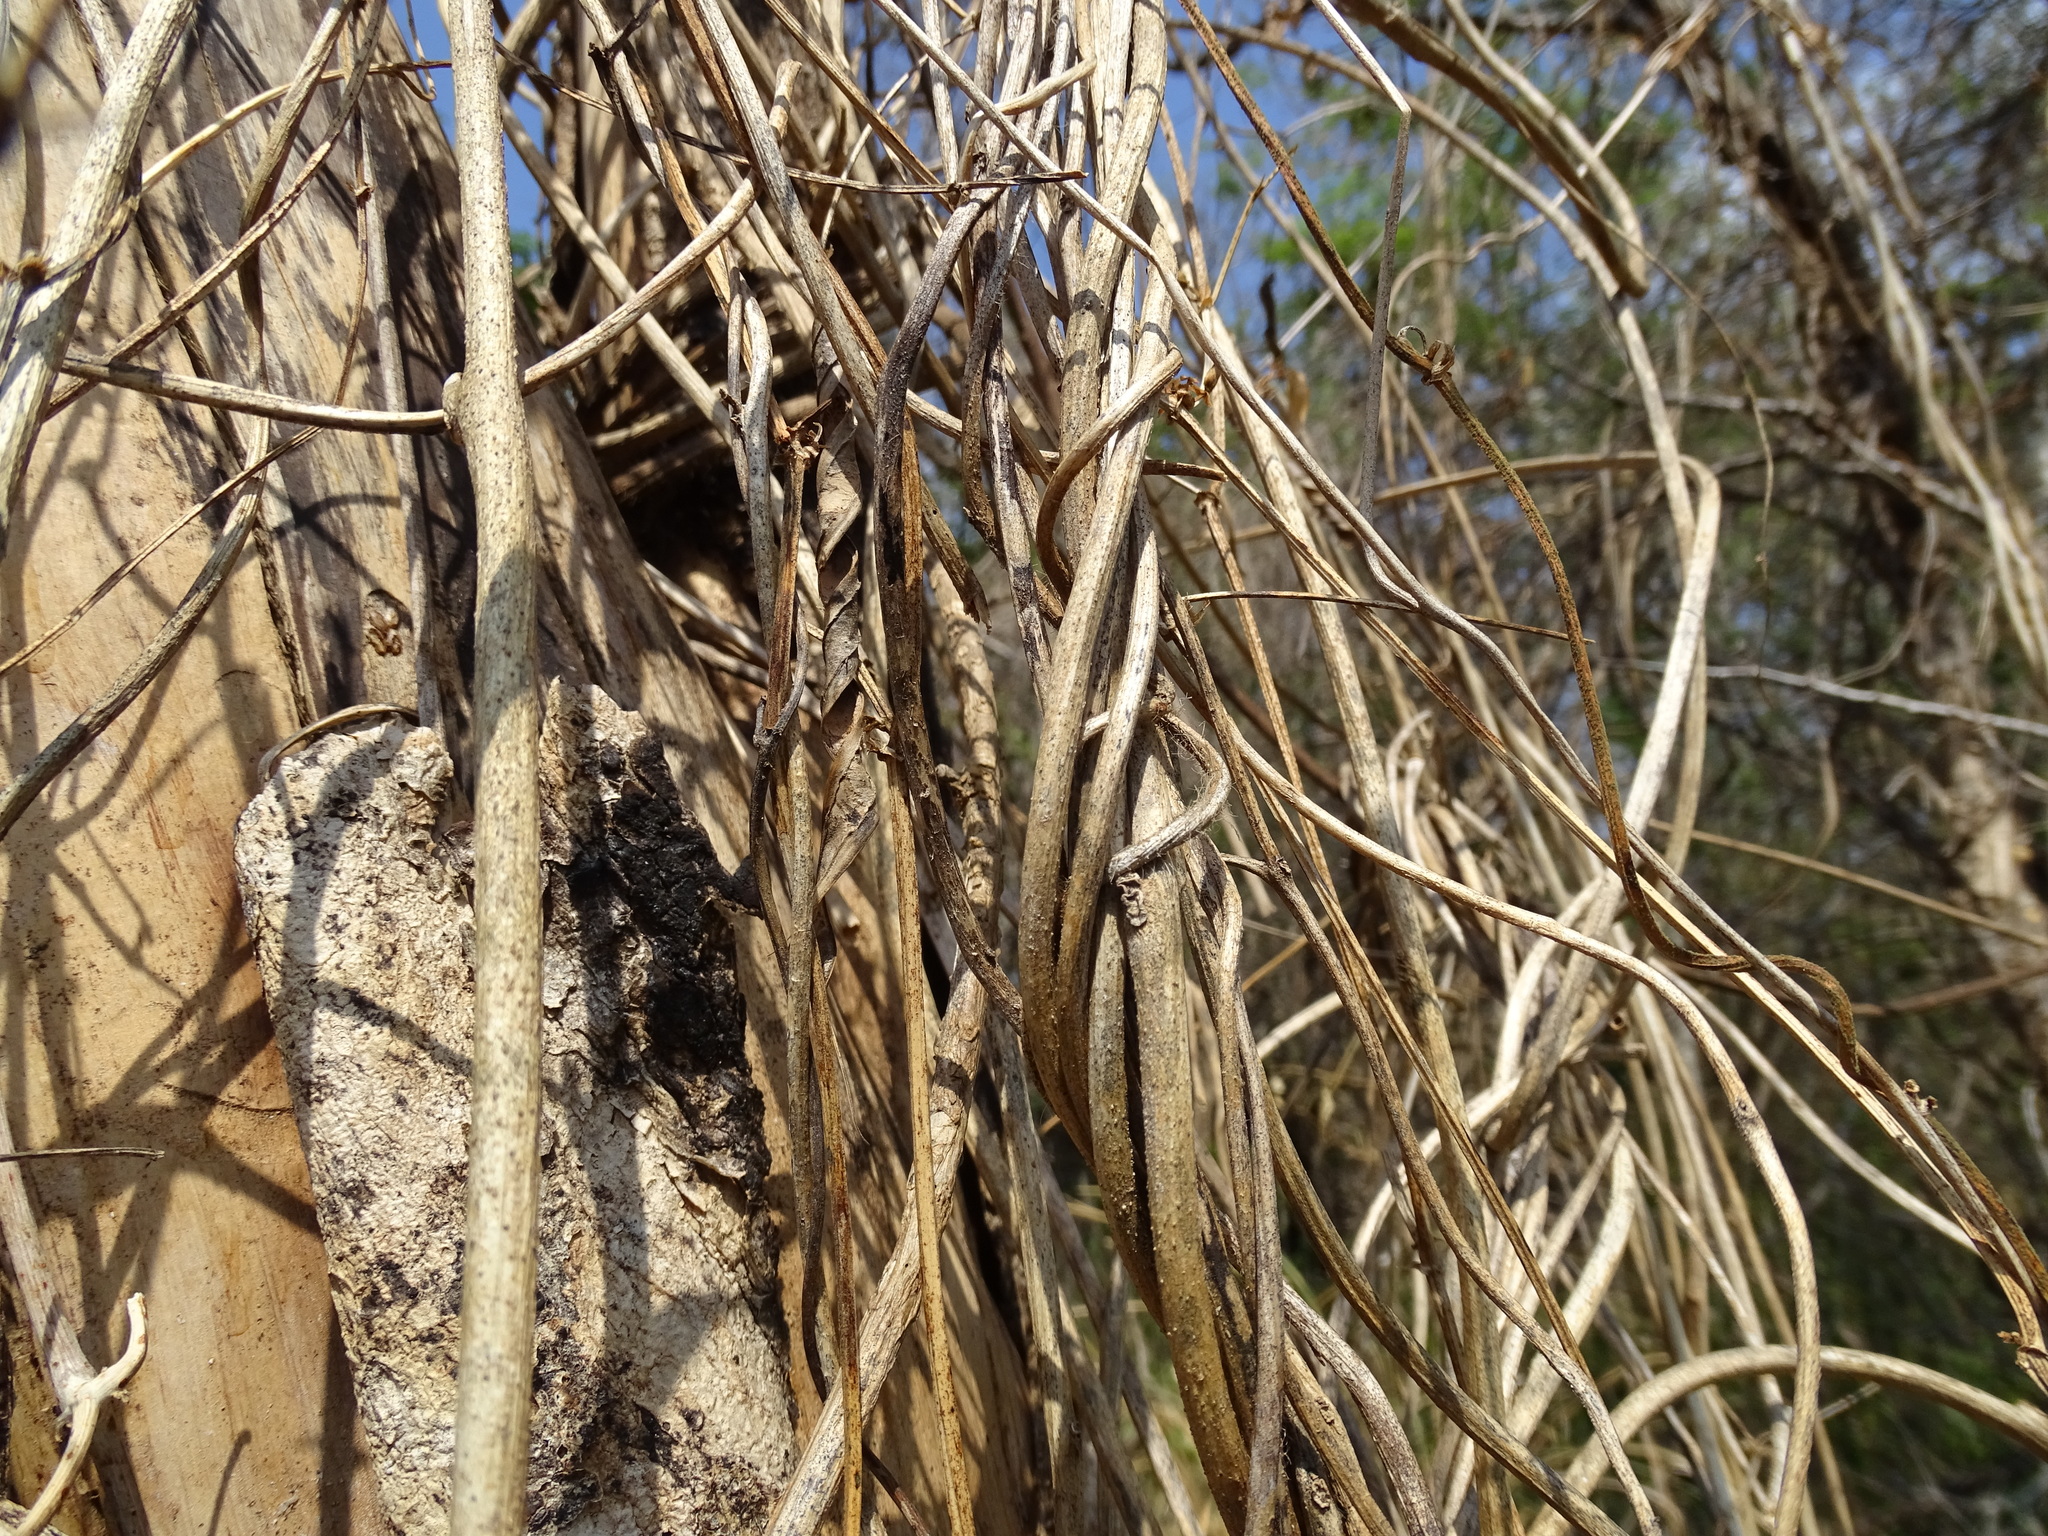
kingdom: Plantae
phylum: Tracheophyta
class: Magnoliopsida
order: Solanales
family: Convolvulaceae
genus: Ipomoea
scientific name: Ipomoea muricata
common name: Lilac-bell
